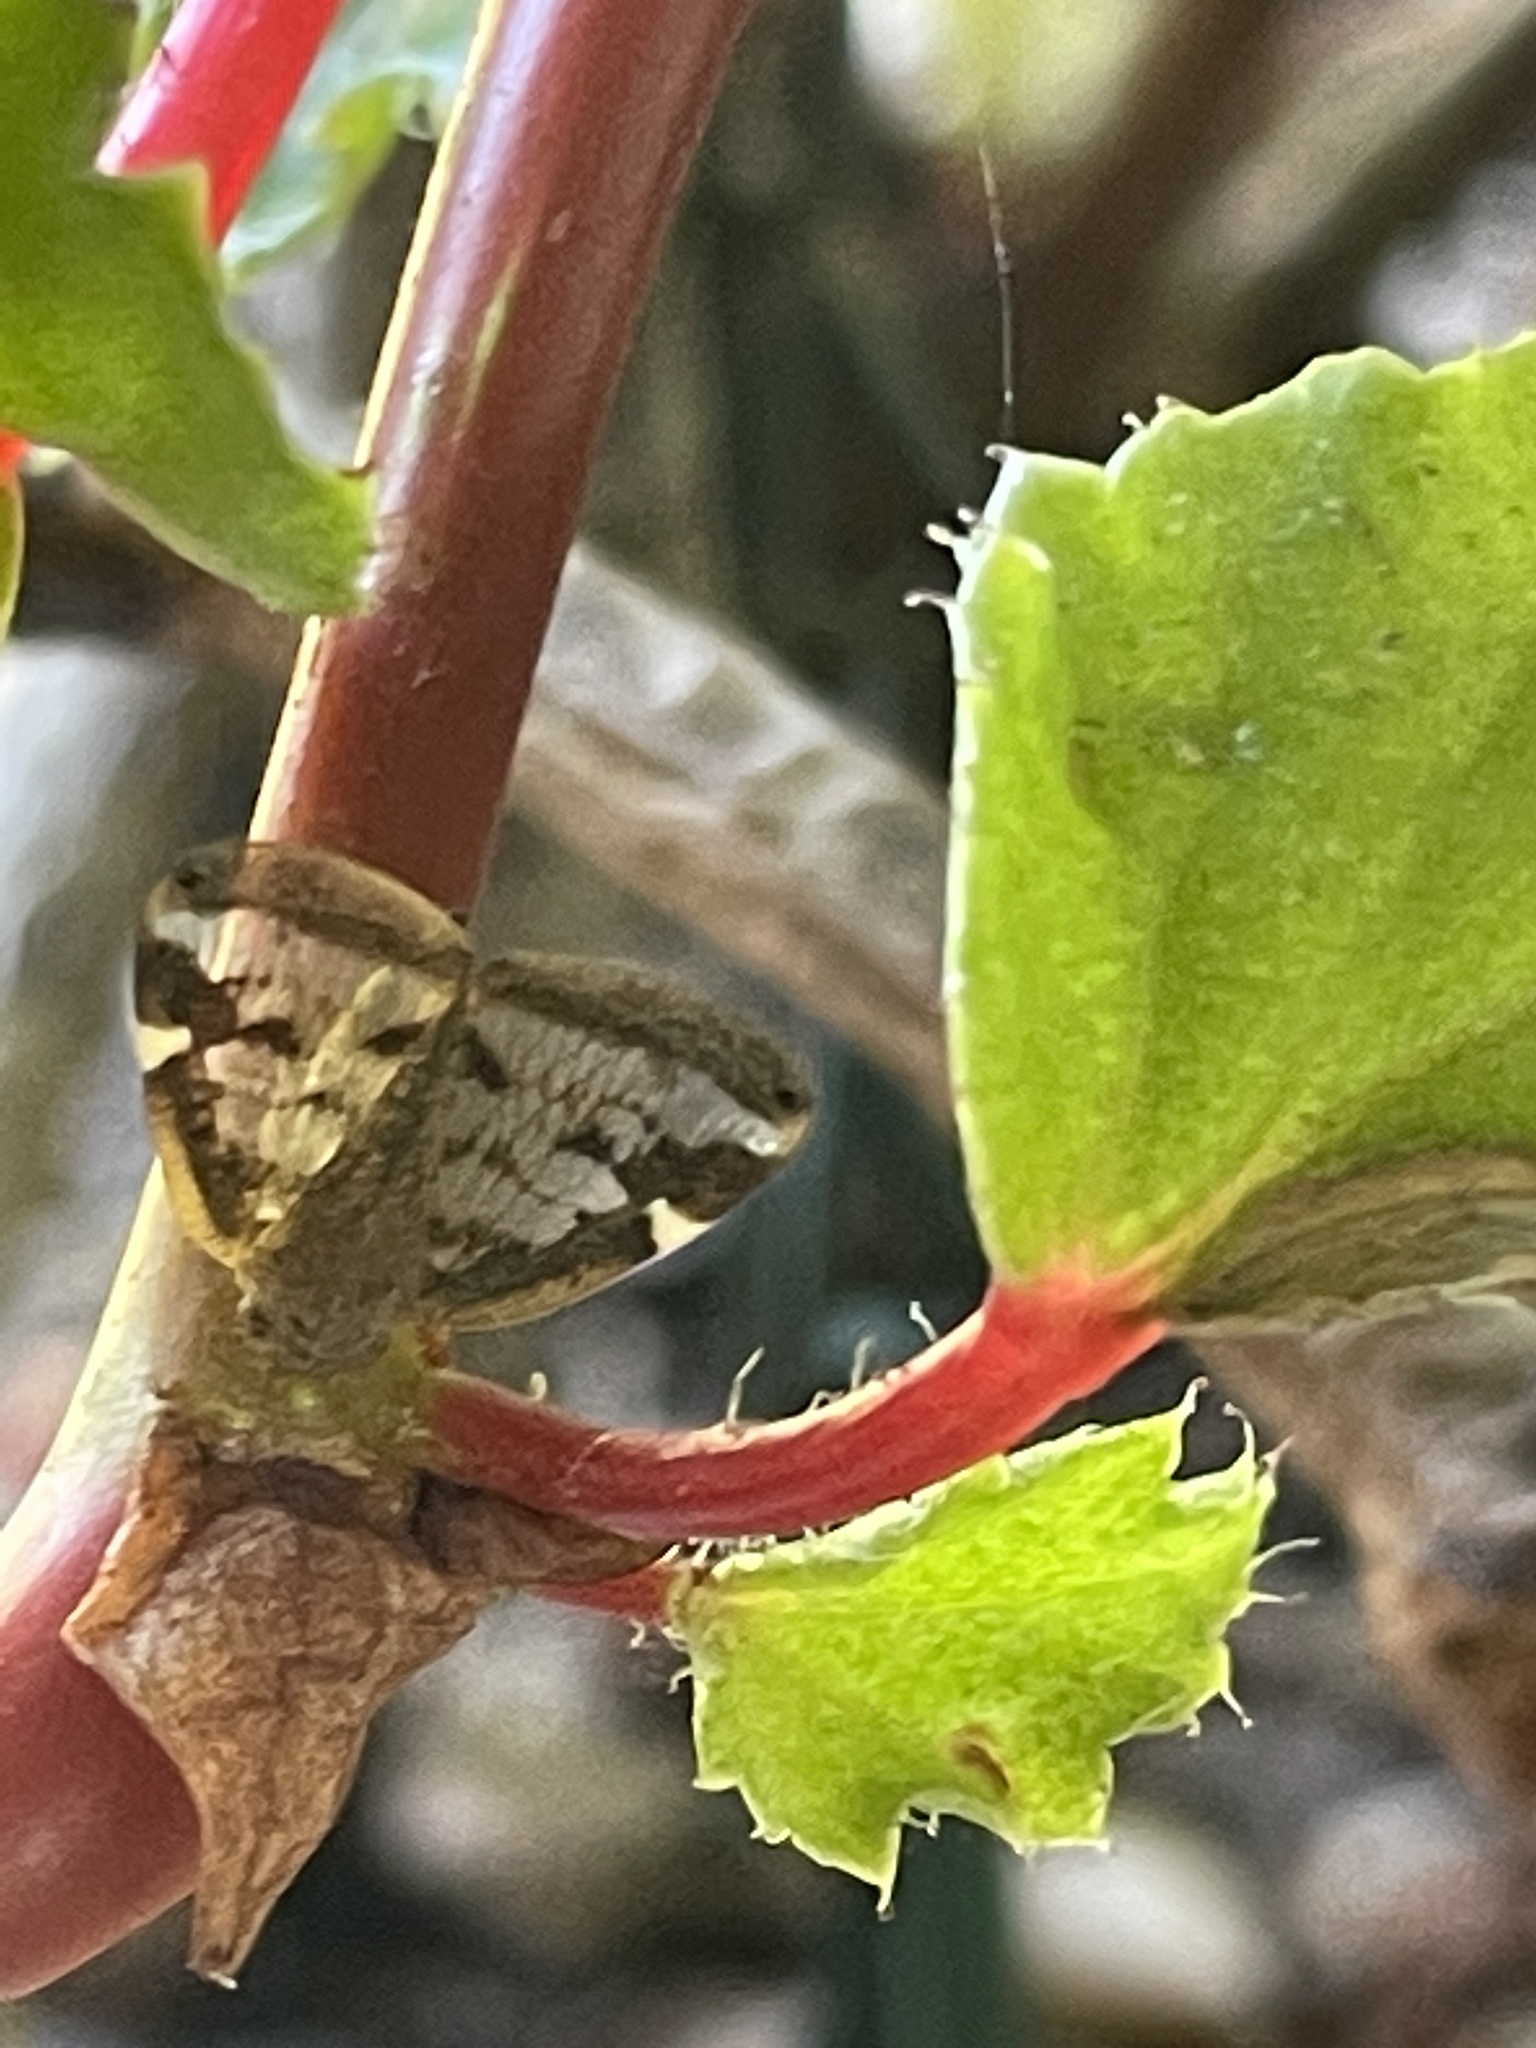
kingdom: Animalia
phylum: Arthropoda
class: Insecta
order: Hemiptera
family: Ricaniidae
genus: Scolypopa
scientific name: Scolypopa australis
